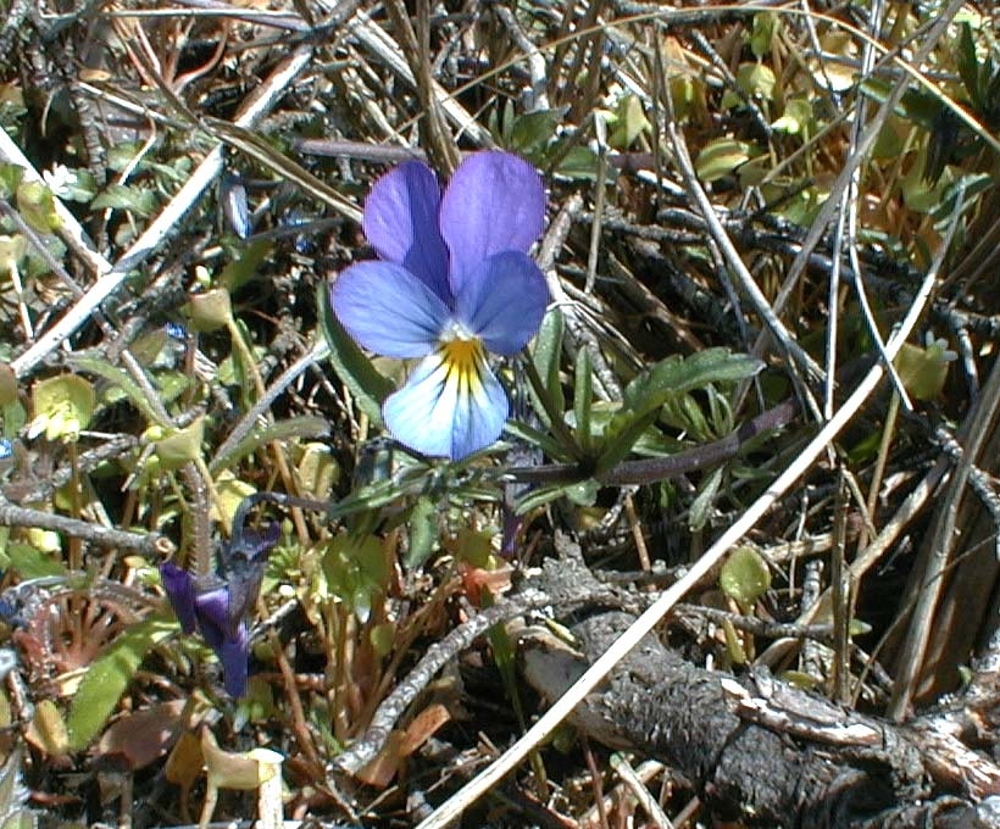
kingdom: Plantae
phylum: Tracheophyta
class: Magnoliopsida
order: Malpighiales
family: Violaceae
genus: Viola
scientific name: Viola tricolor
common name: Pansy
